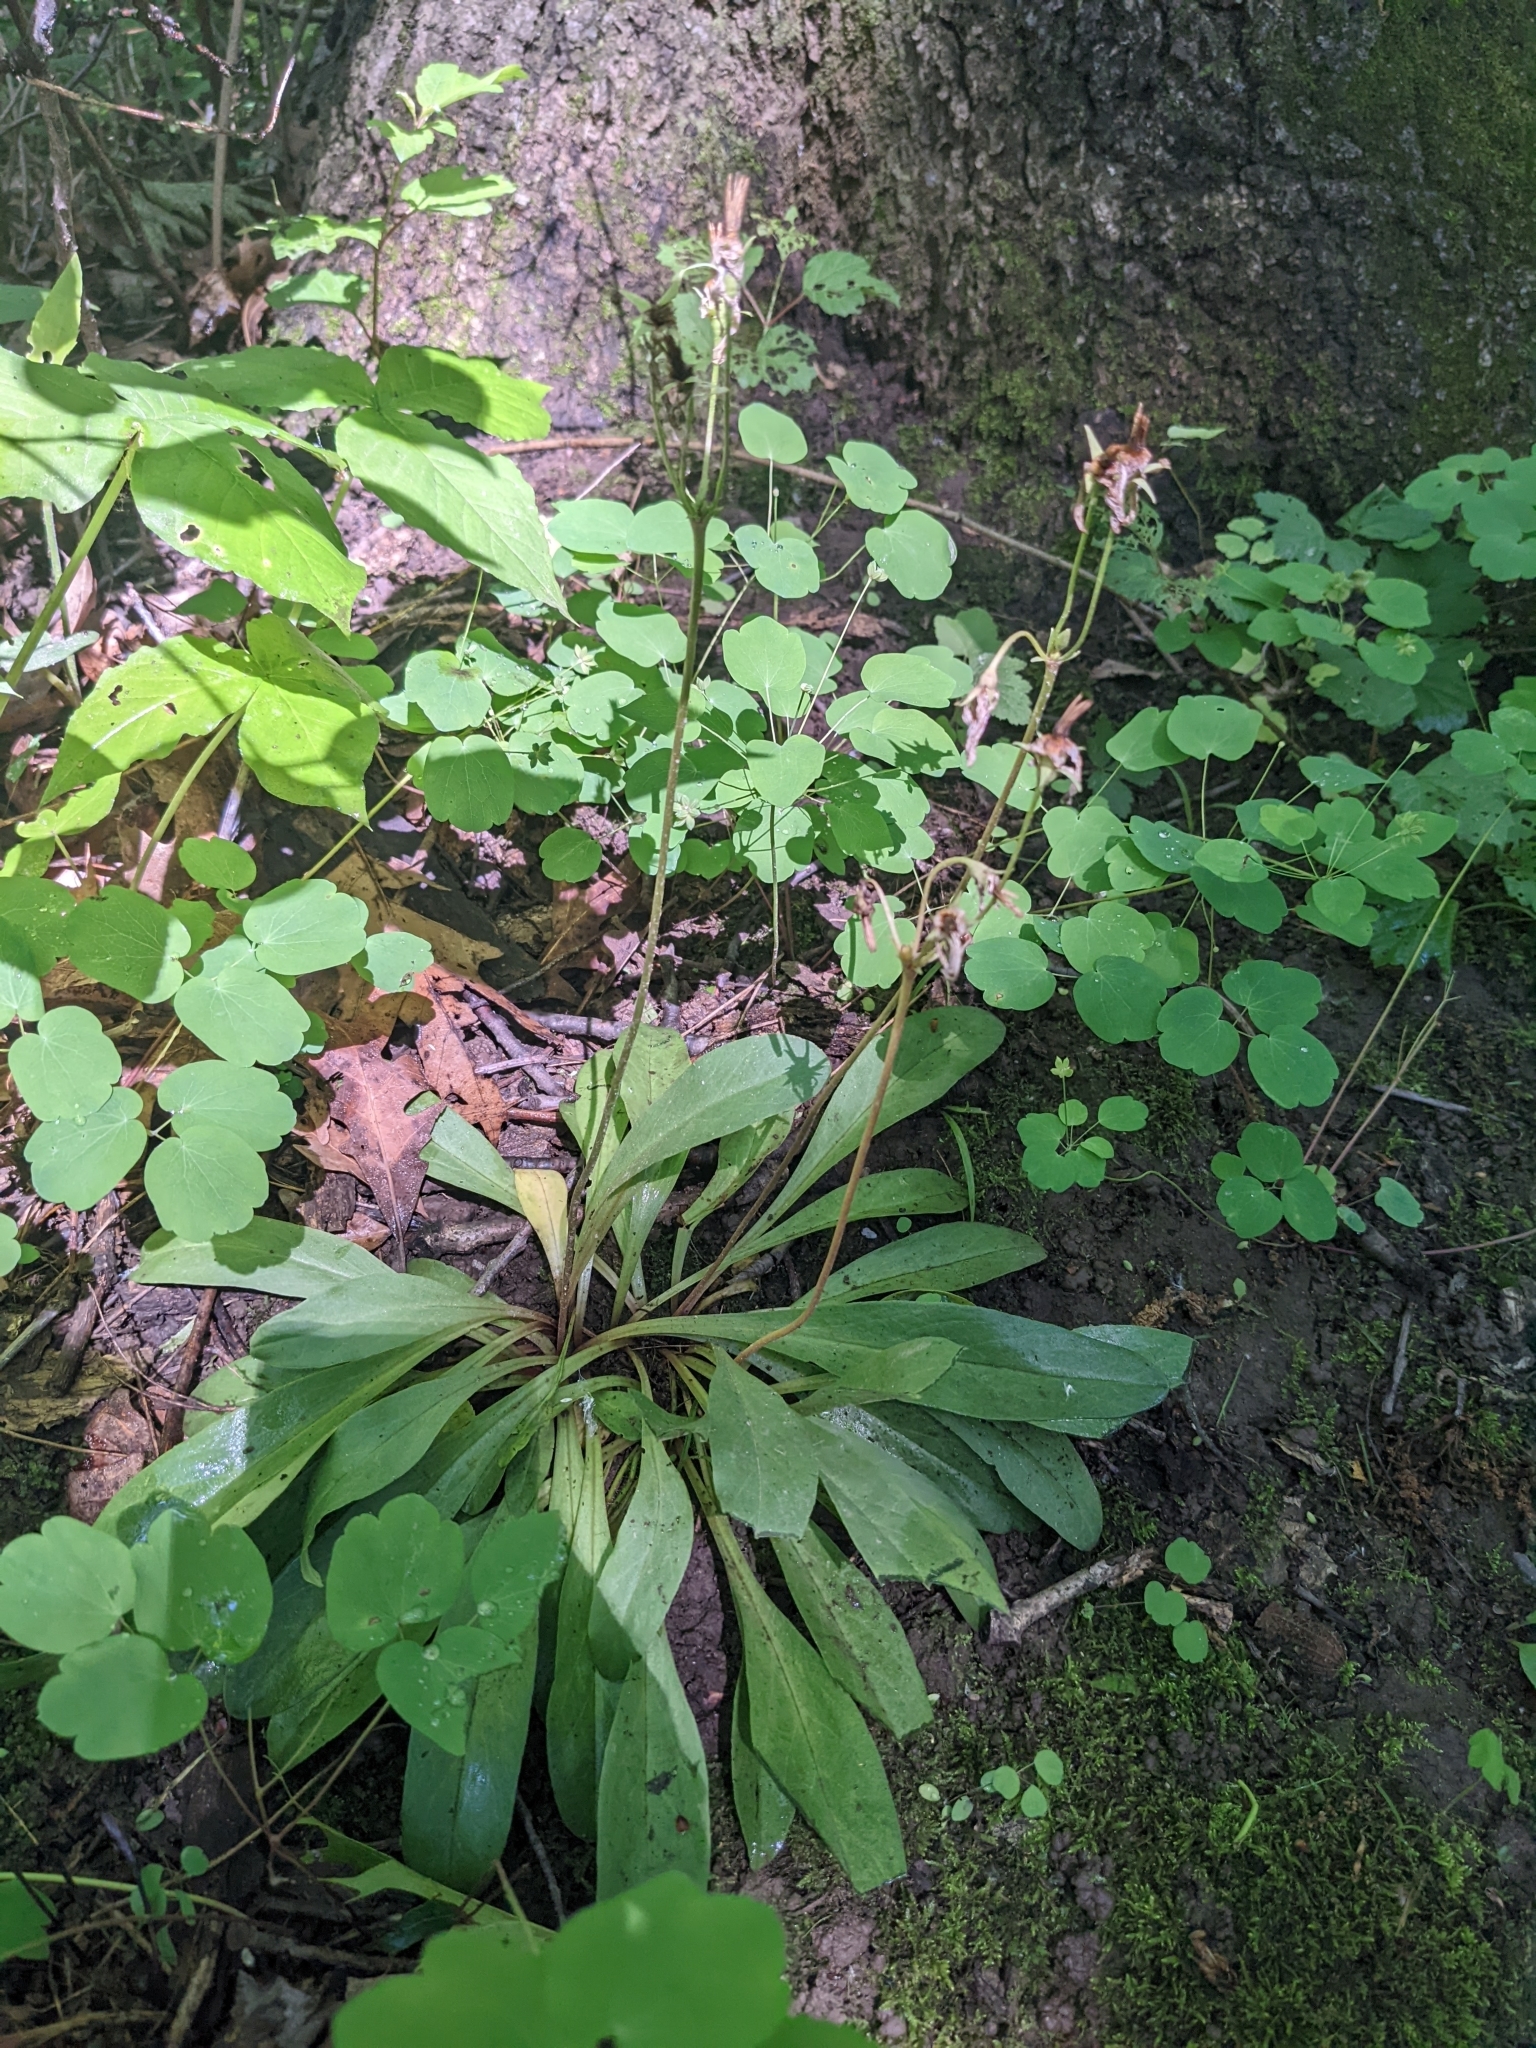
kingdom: Plantae
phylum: Tracheophyta
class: Magnoliopsida
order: Ericales
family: Primulaceae
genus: Dodecatheon
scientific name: Dodecatheon meadia
